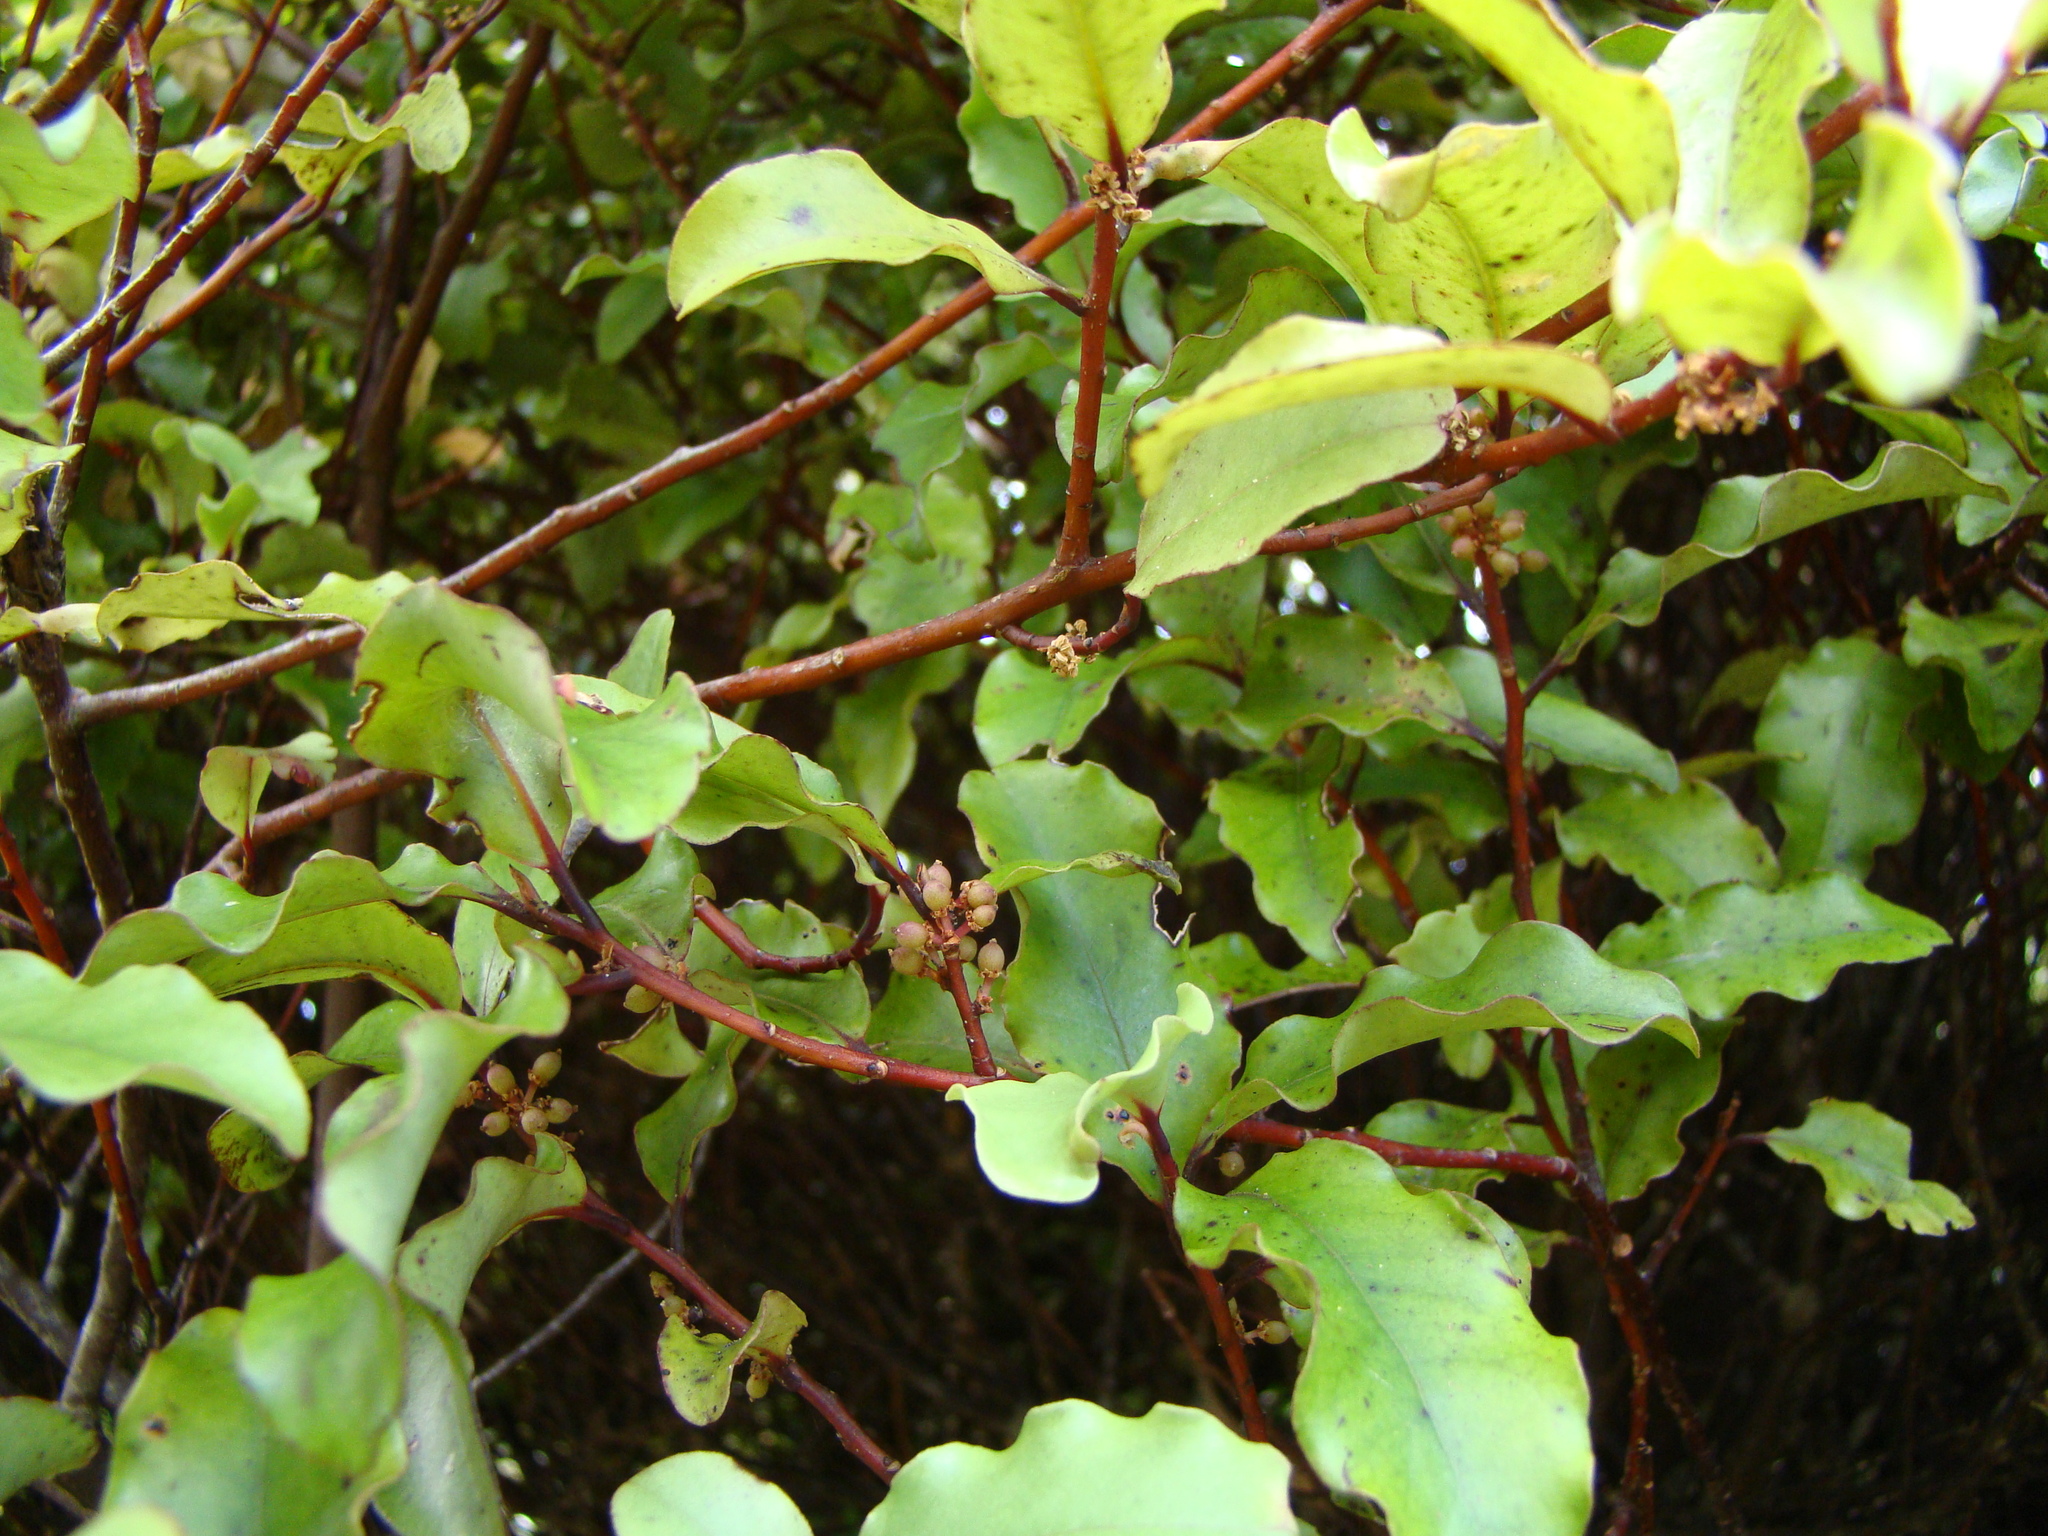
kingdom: Plantae
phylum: Tracheophyta
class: Magnoliopsida
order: Ericales
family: Primulaceae
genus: Myrsine
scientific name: Myrsine australis
